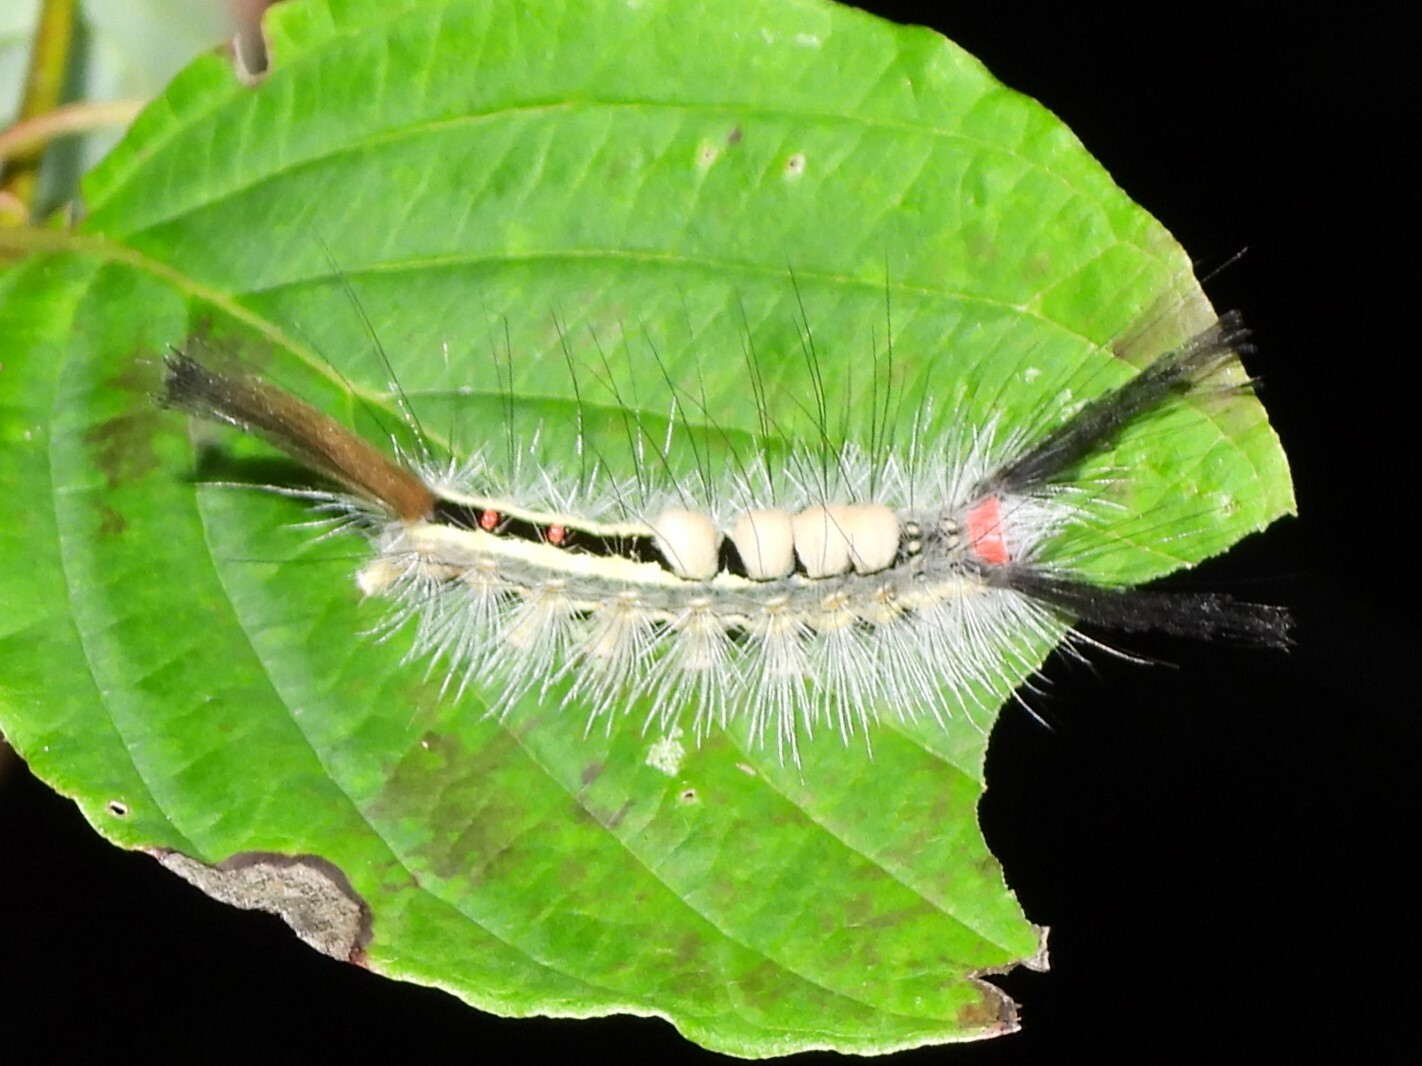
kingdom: Animalia
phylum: Arthropoda
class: Insecta
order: Lepidoptera
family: Erebidae
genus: Orgyia
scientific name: Orgyia leucostigma
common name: White-marked tussock moth
